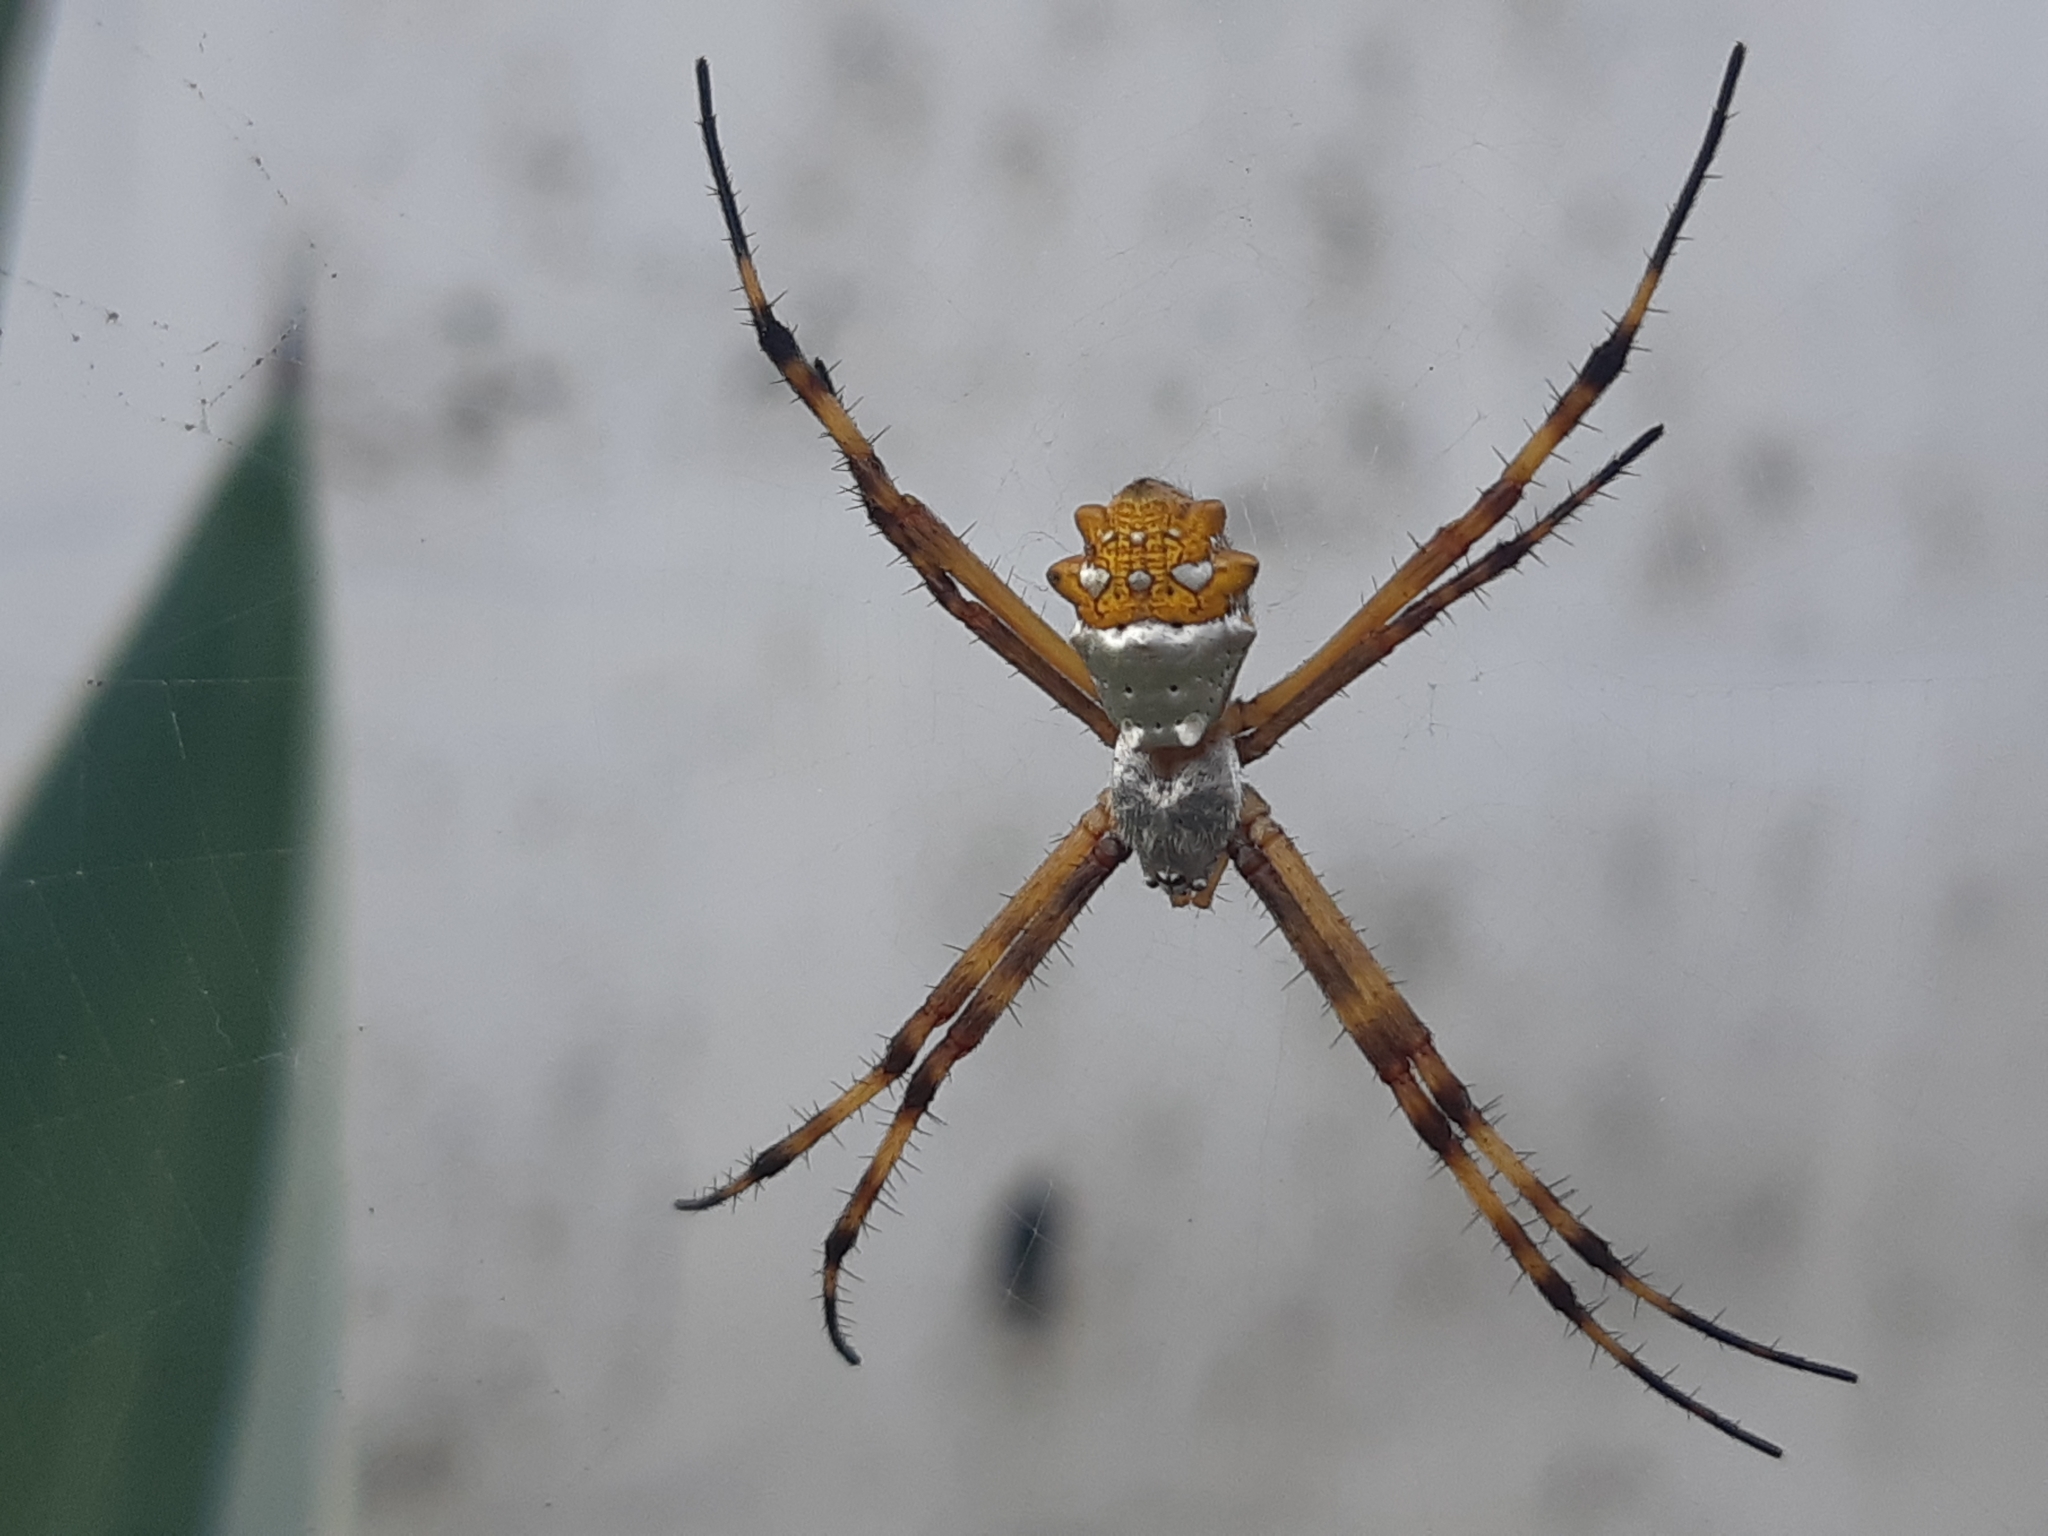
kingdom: Animalia
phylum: Arthropoda
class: Arachnida
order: Araneae
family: Araneidae
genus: Argiope
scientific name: Argiope argentata
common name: Orb weavers
